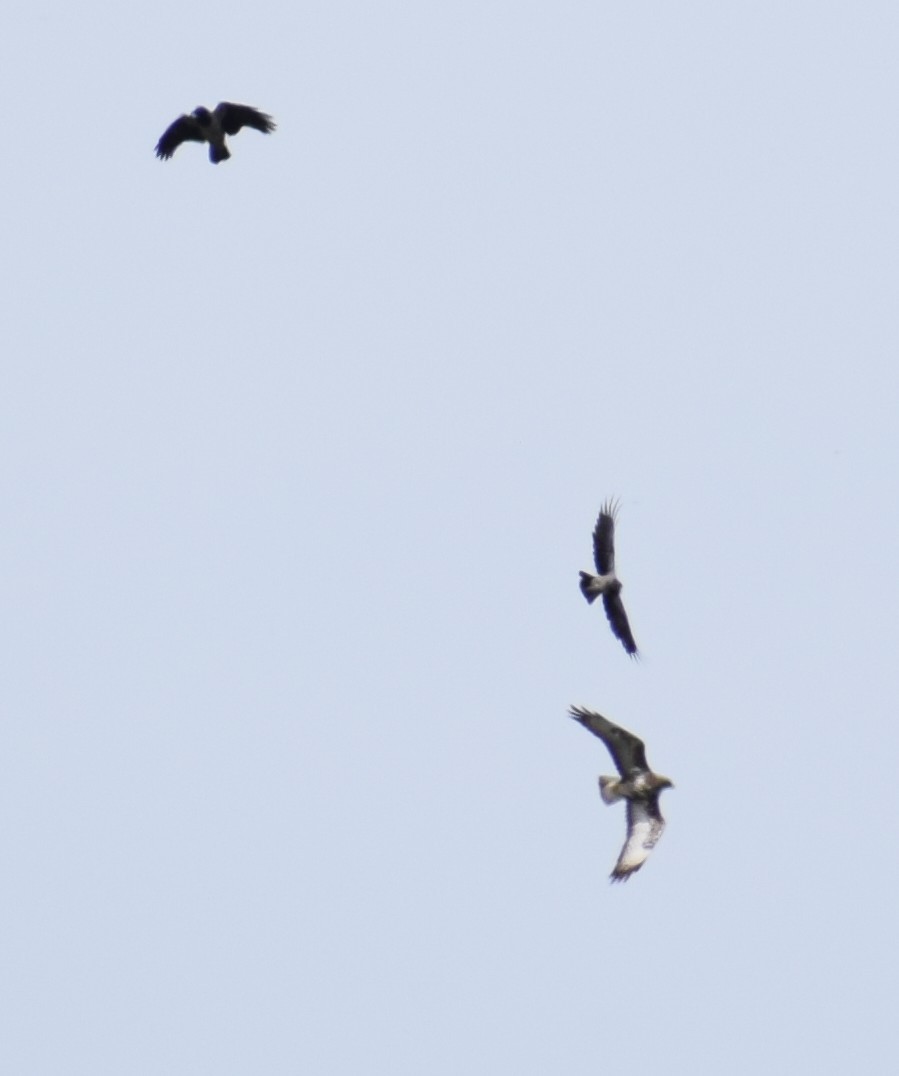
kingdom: Animalia
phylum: Chordata
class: Aves
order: Passeriformes
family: Corvidae
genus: Corvus
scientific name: Corvus cornix
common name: Hooded crow
